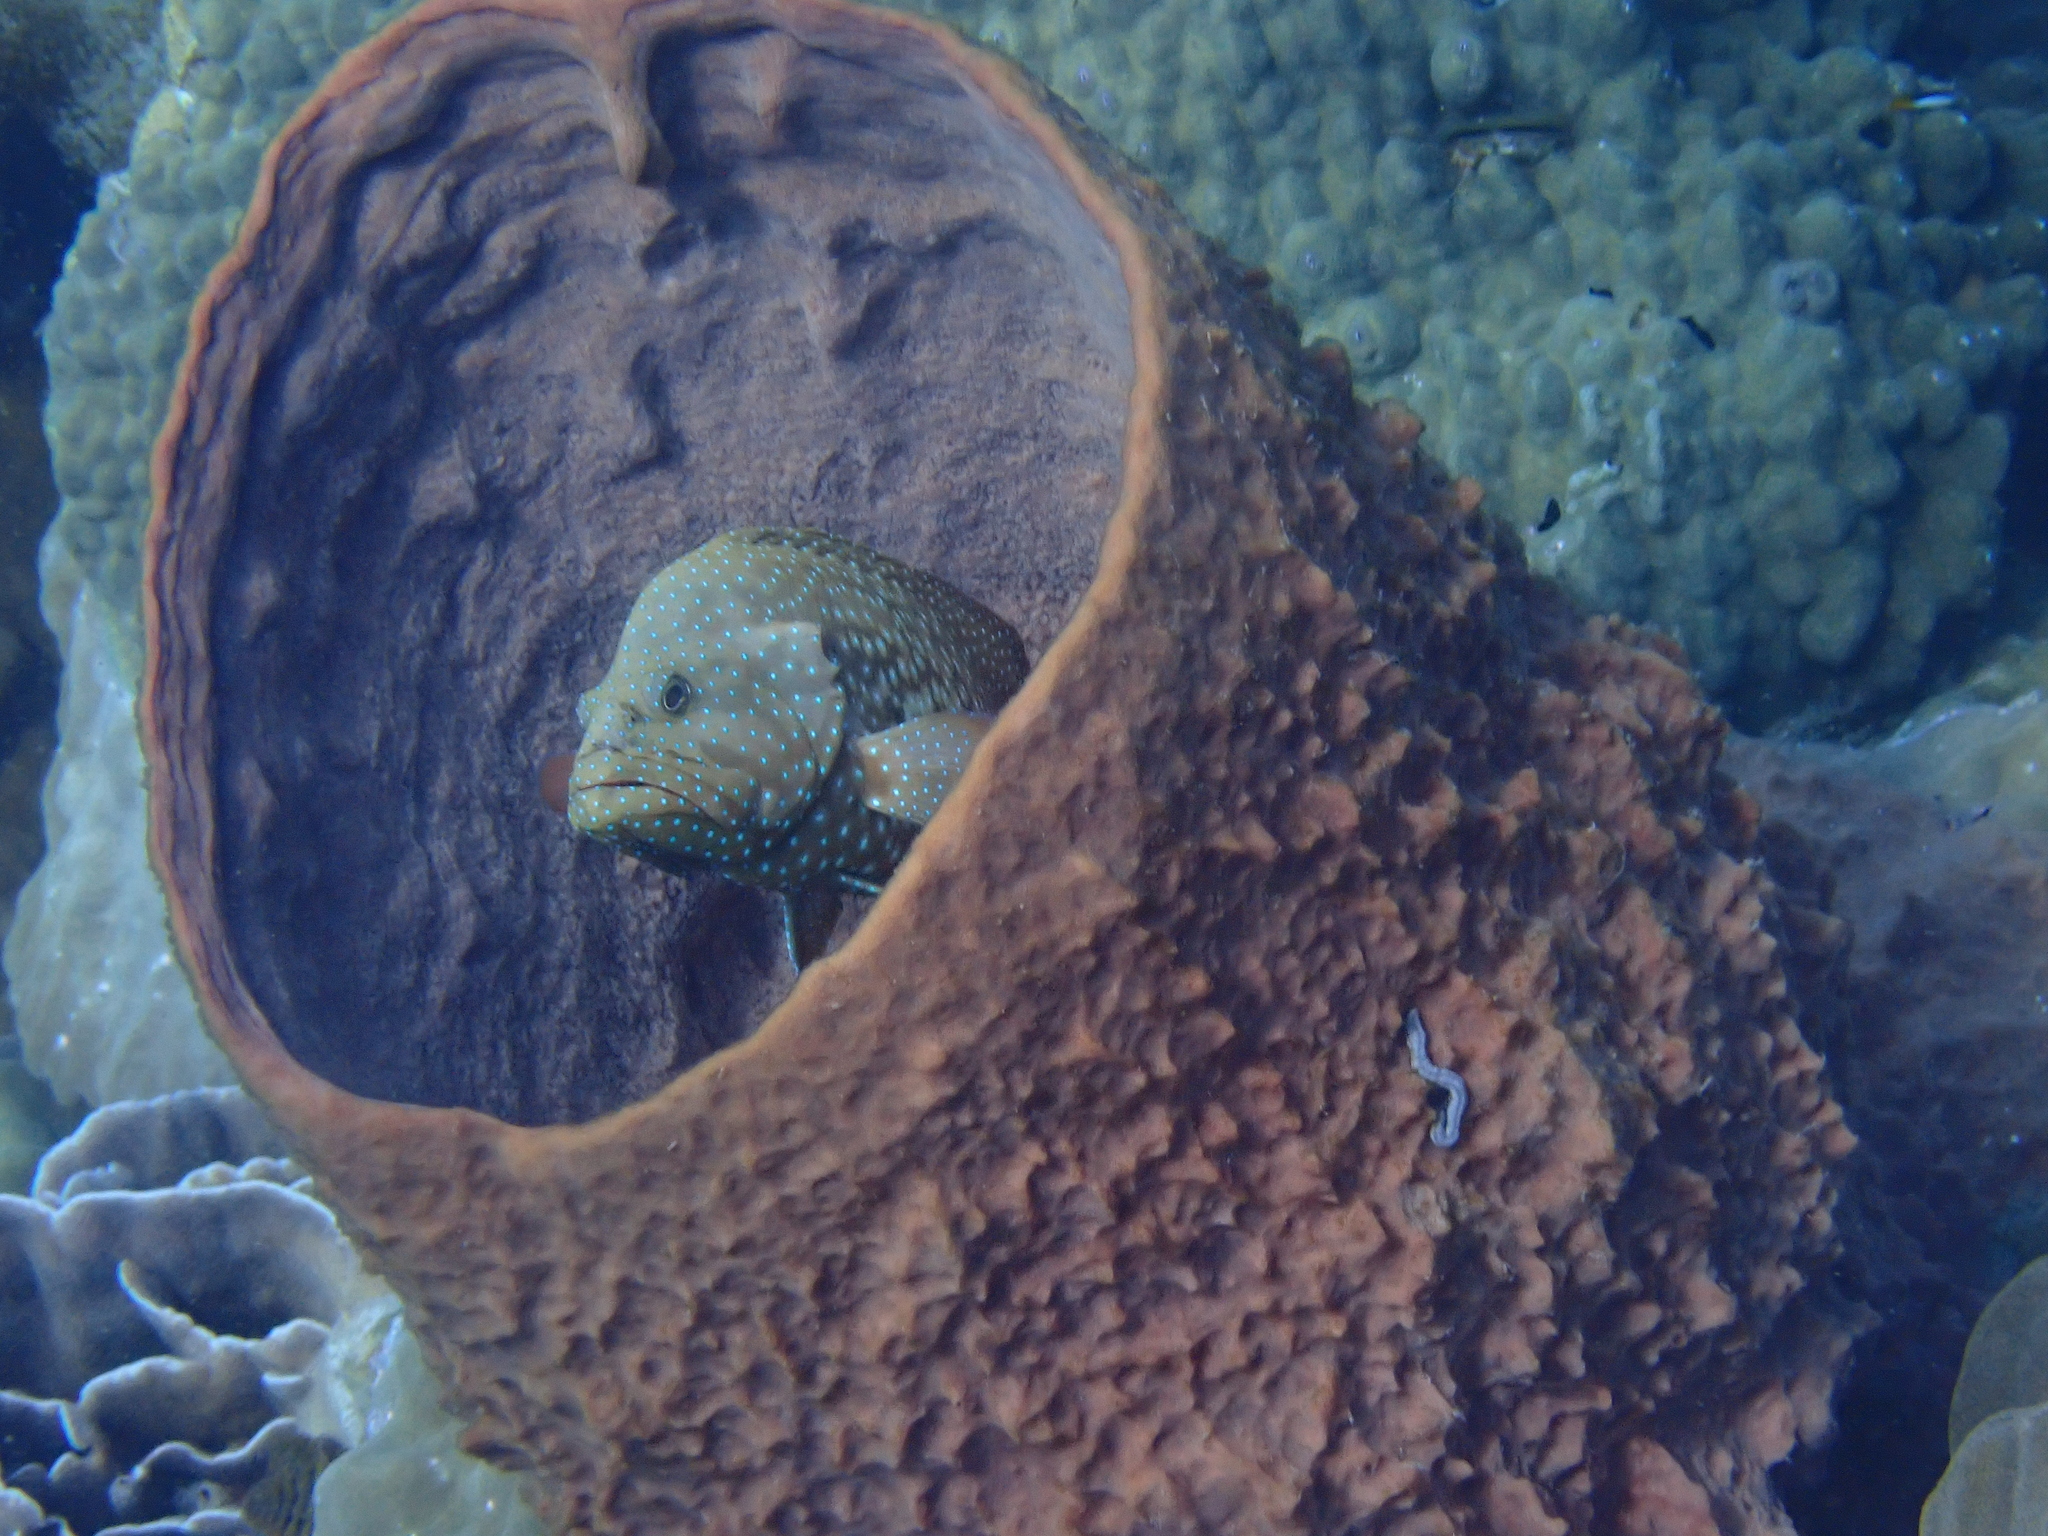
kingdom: Animalia
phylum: Chordata
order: Perciformes
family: Serranidae
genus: Cephalopholis
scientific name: Cephalopholis cyanostigma
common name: Bluespotted hind
